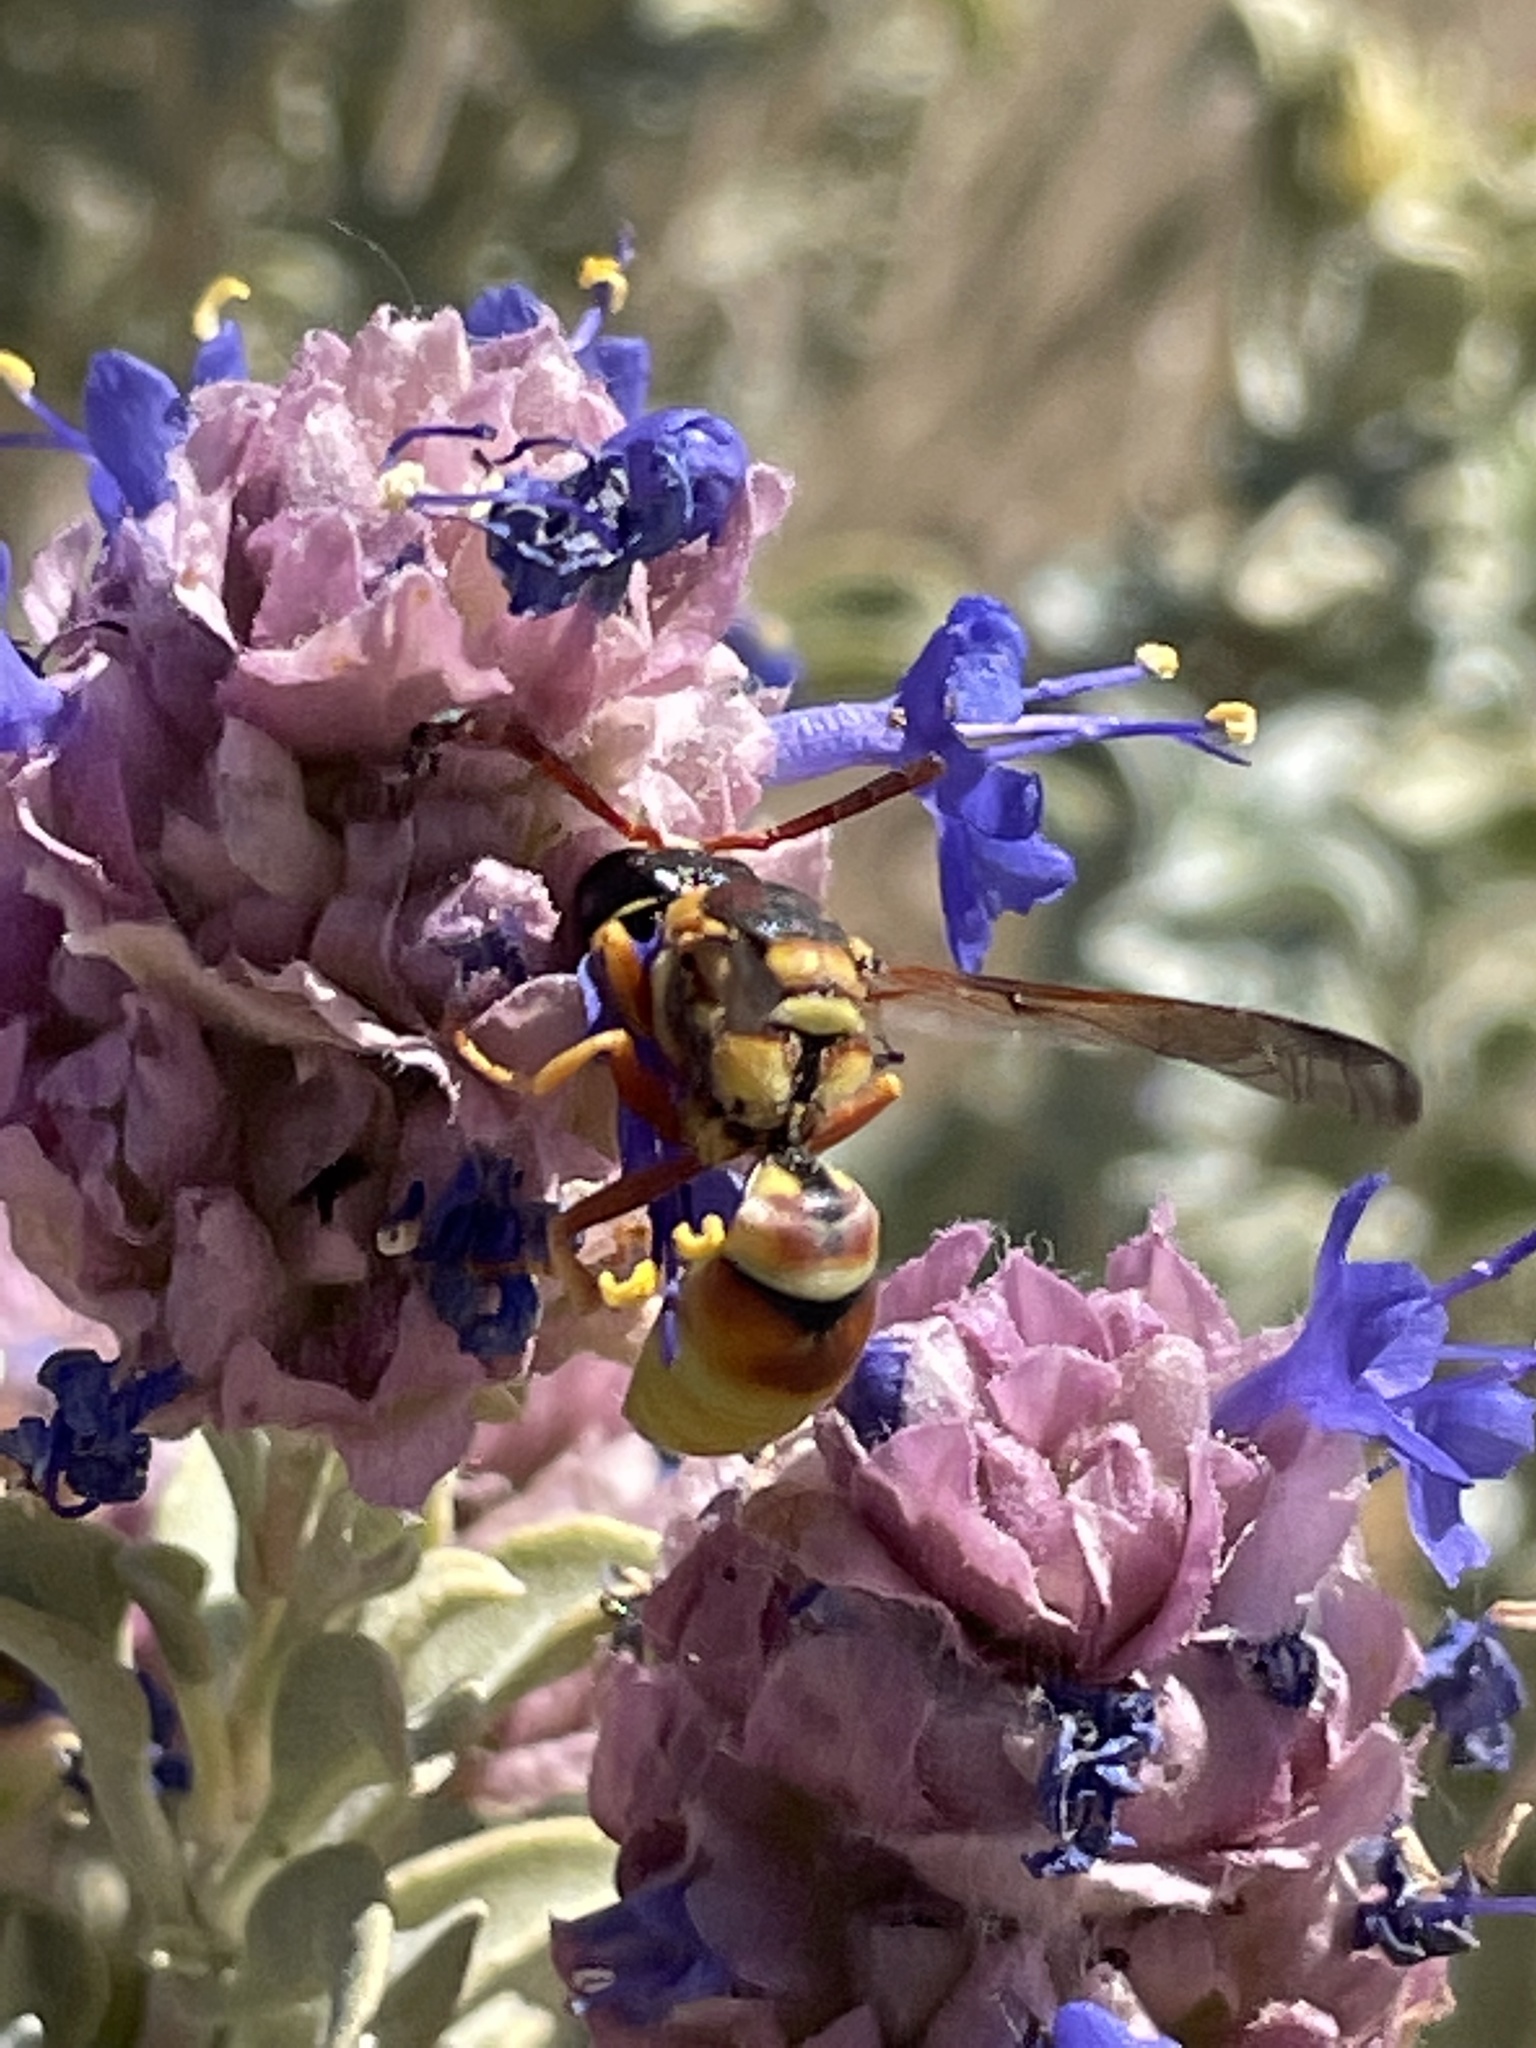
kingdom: Plantae
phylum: Tracheophyta
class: Magnoliopsida
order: Lamiales
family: Lamiaceae
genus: Salvia
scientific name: Salvia dorrii
